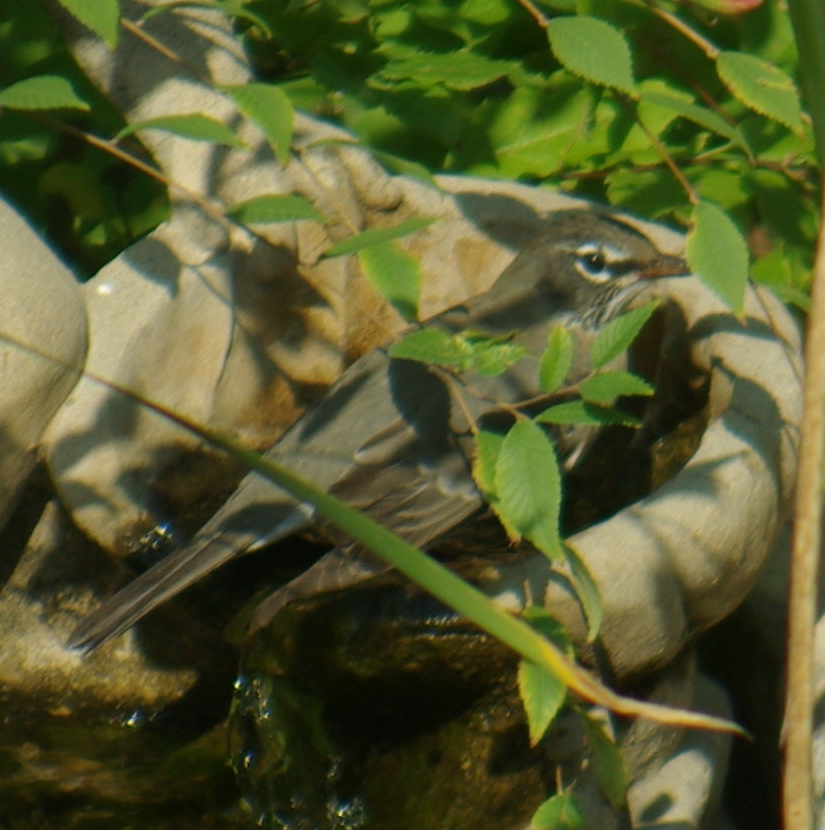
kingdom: Animalia
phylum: Chordata
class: Aves
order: Passeriformes
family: Turdidae
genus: Turdus
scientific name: Turdus migratorius
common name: American robin
